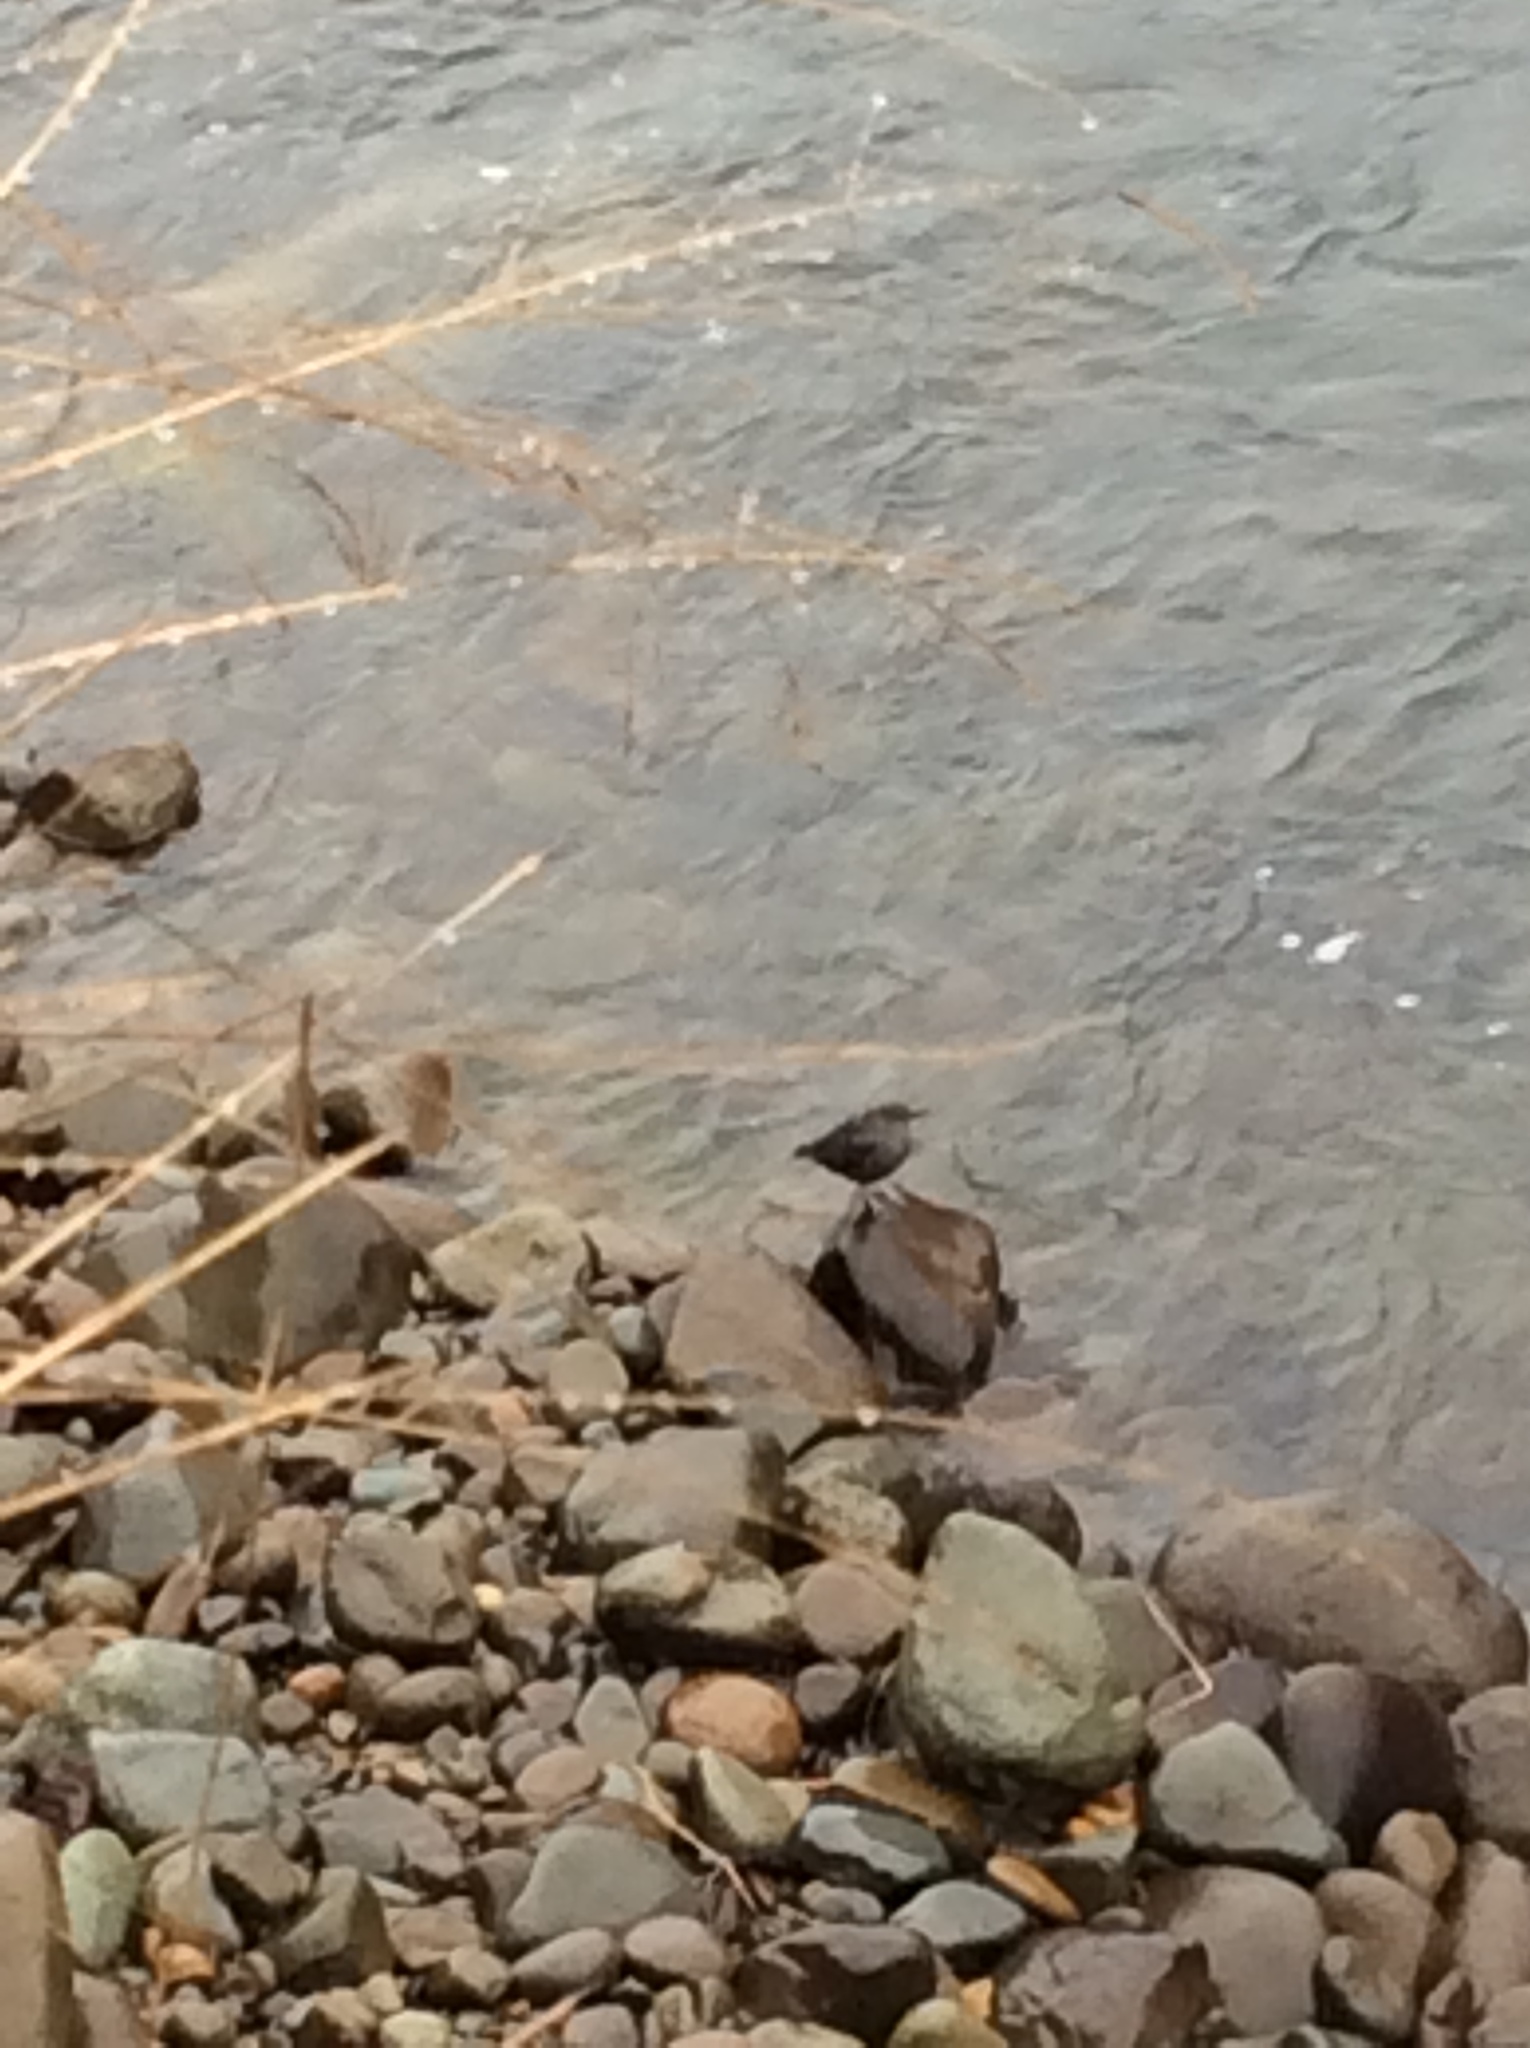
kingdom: Animalia
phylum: Chordata
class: Aves
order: Passeriformes
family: Cinclidae
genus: Cinclus
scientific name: Cinclus mexicanus
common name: American dipper
